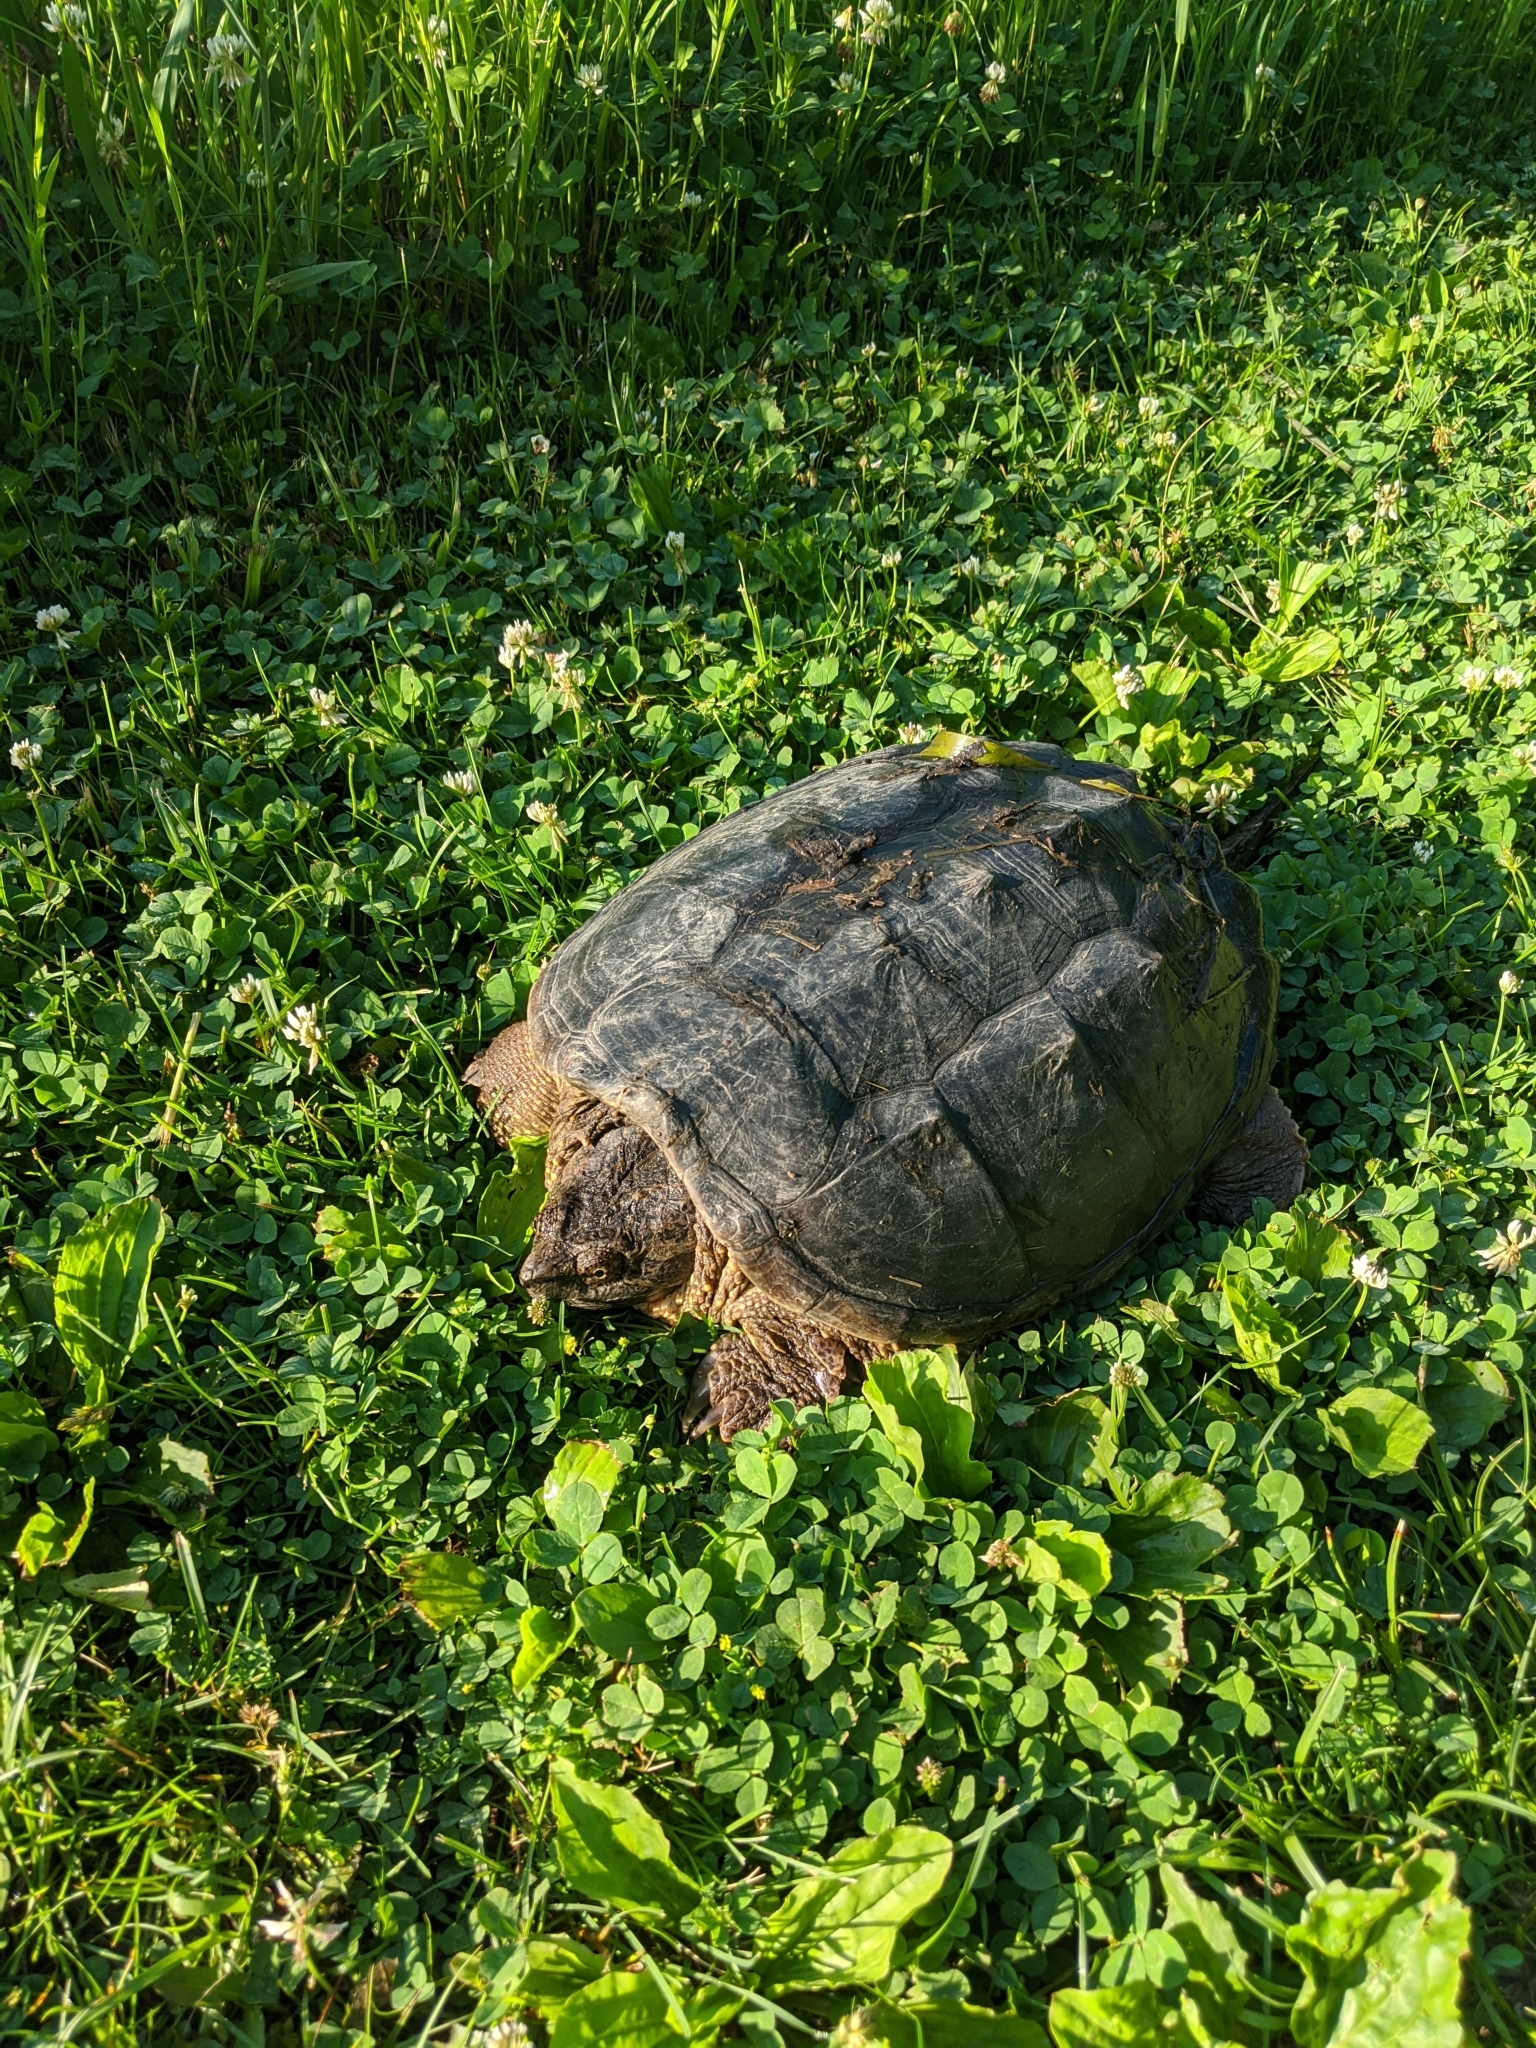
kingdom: Animalia
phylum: Chordata
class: Testudines
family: Chelydridae
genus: Chelydra
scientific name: Chelydra serpentina
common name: Common snapping turtle
